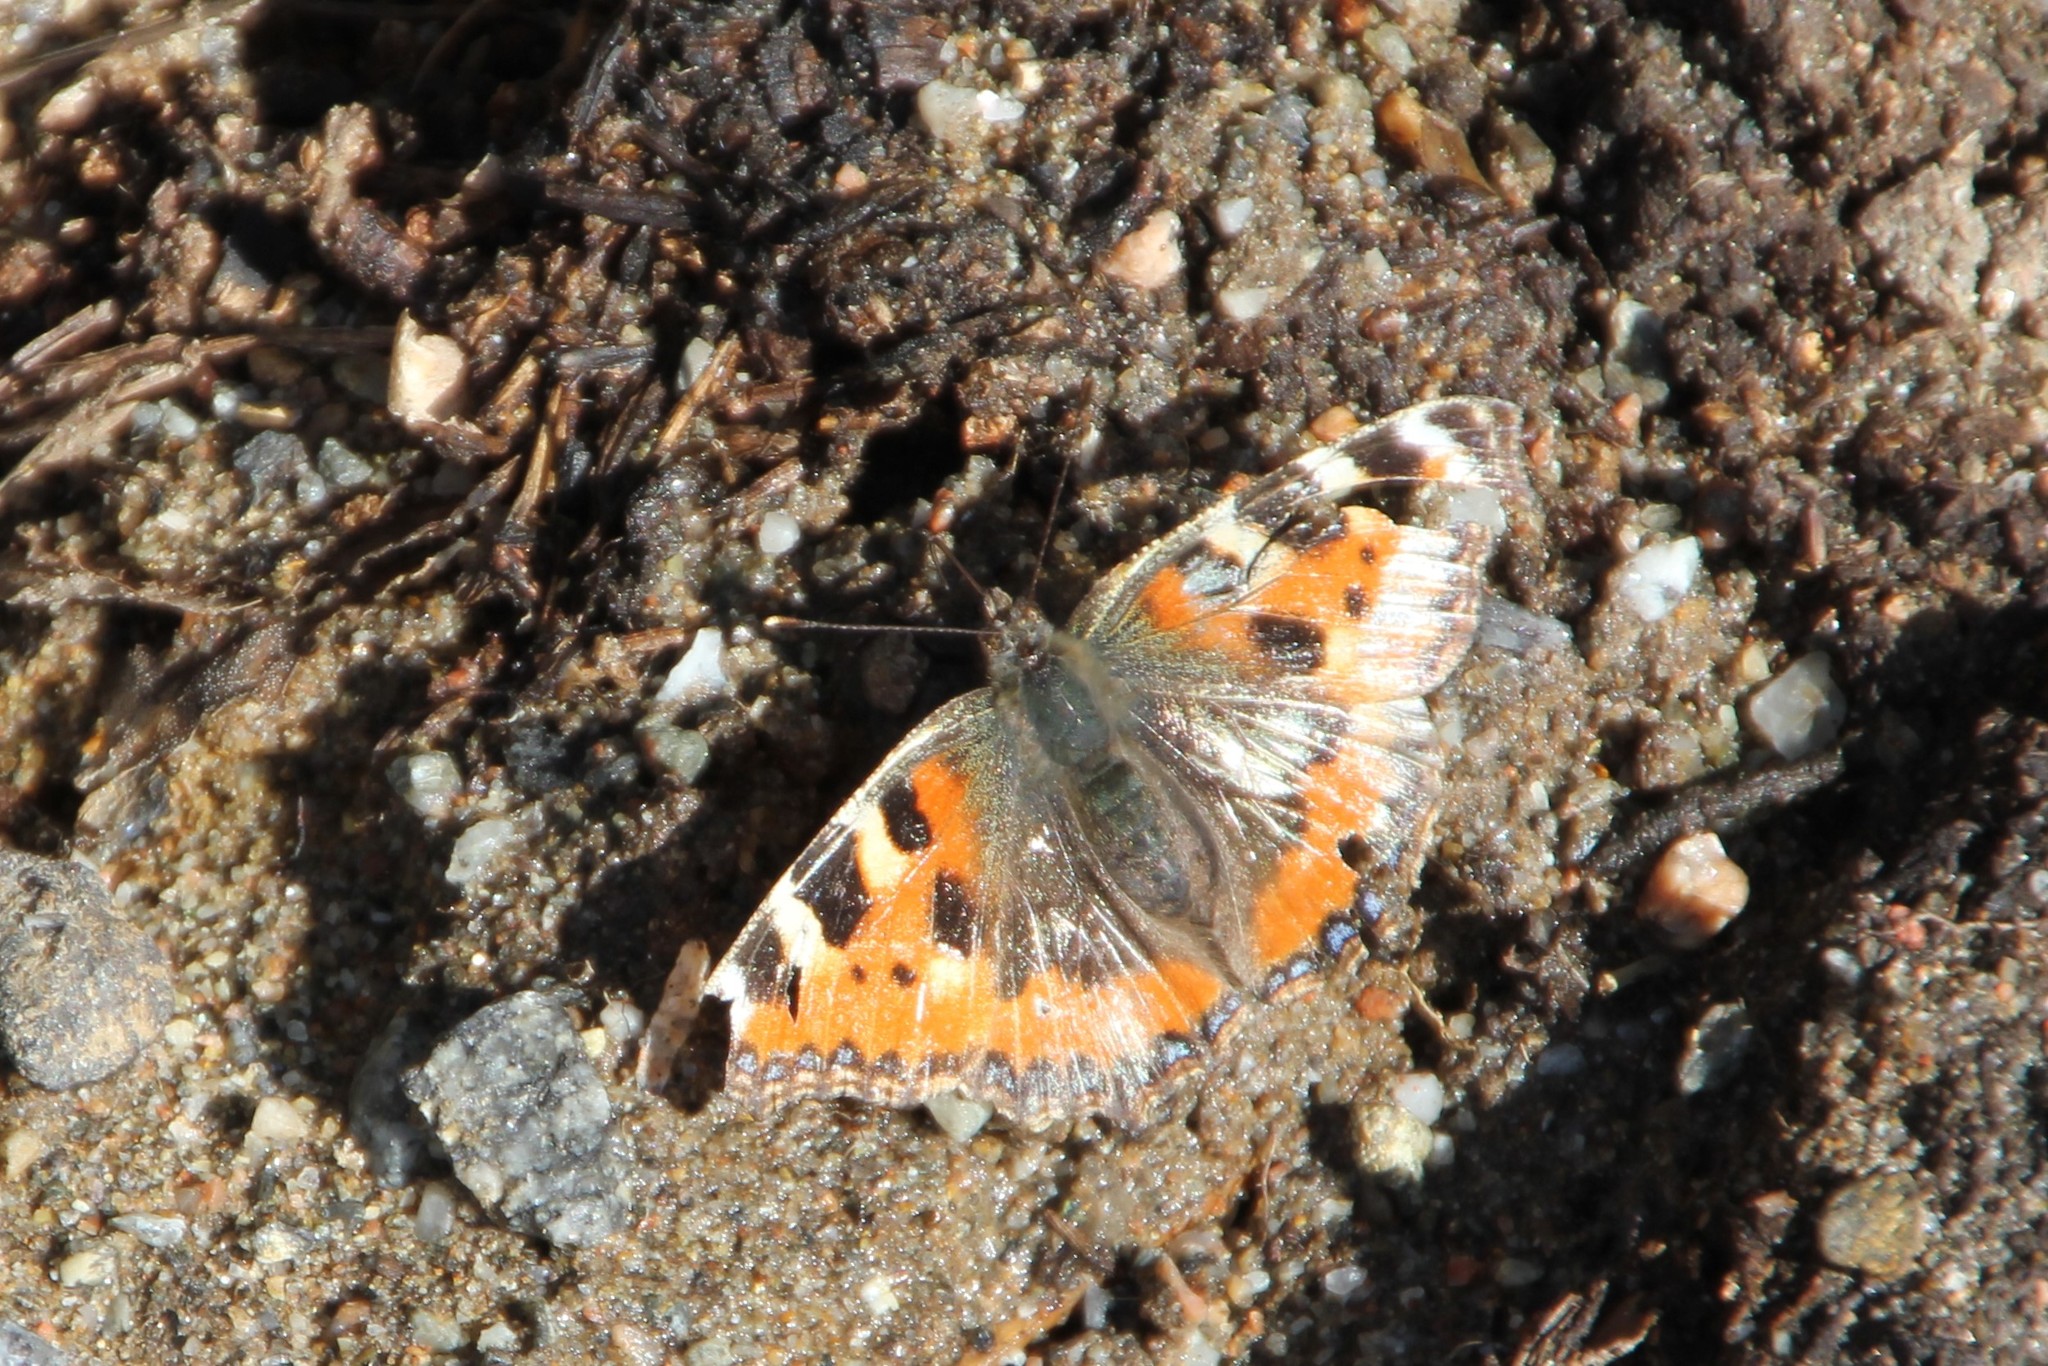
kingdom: Animalia
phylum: Arthropoda
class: Insecta
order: Lepidoptera
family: Nymphalidae
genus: Aglais
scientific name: Aglais urticae
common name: Small tortoiseshell
